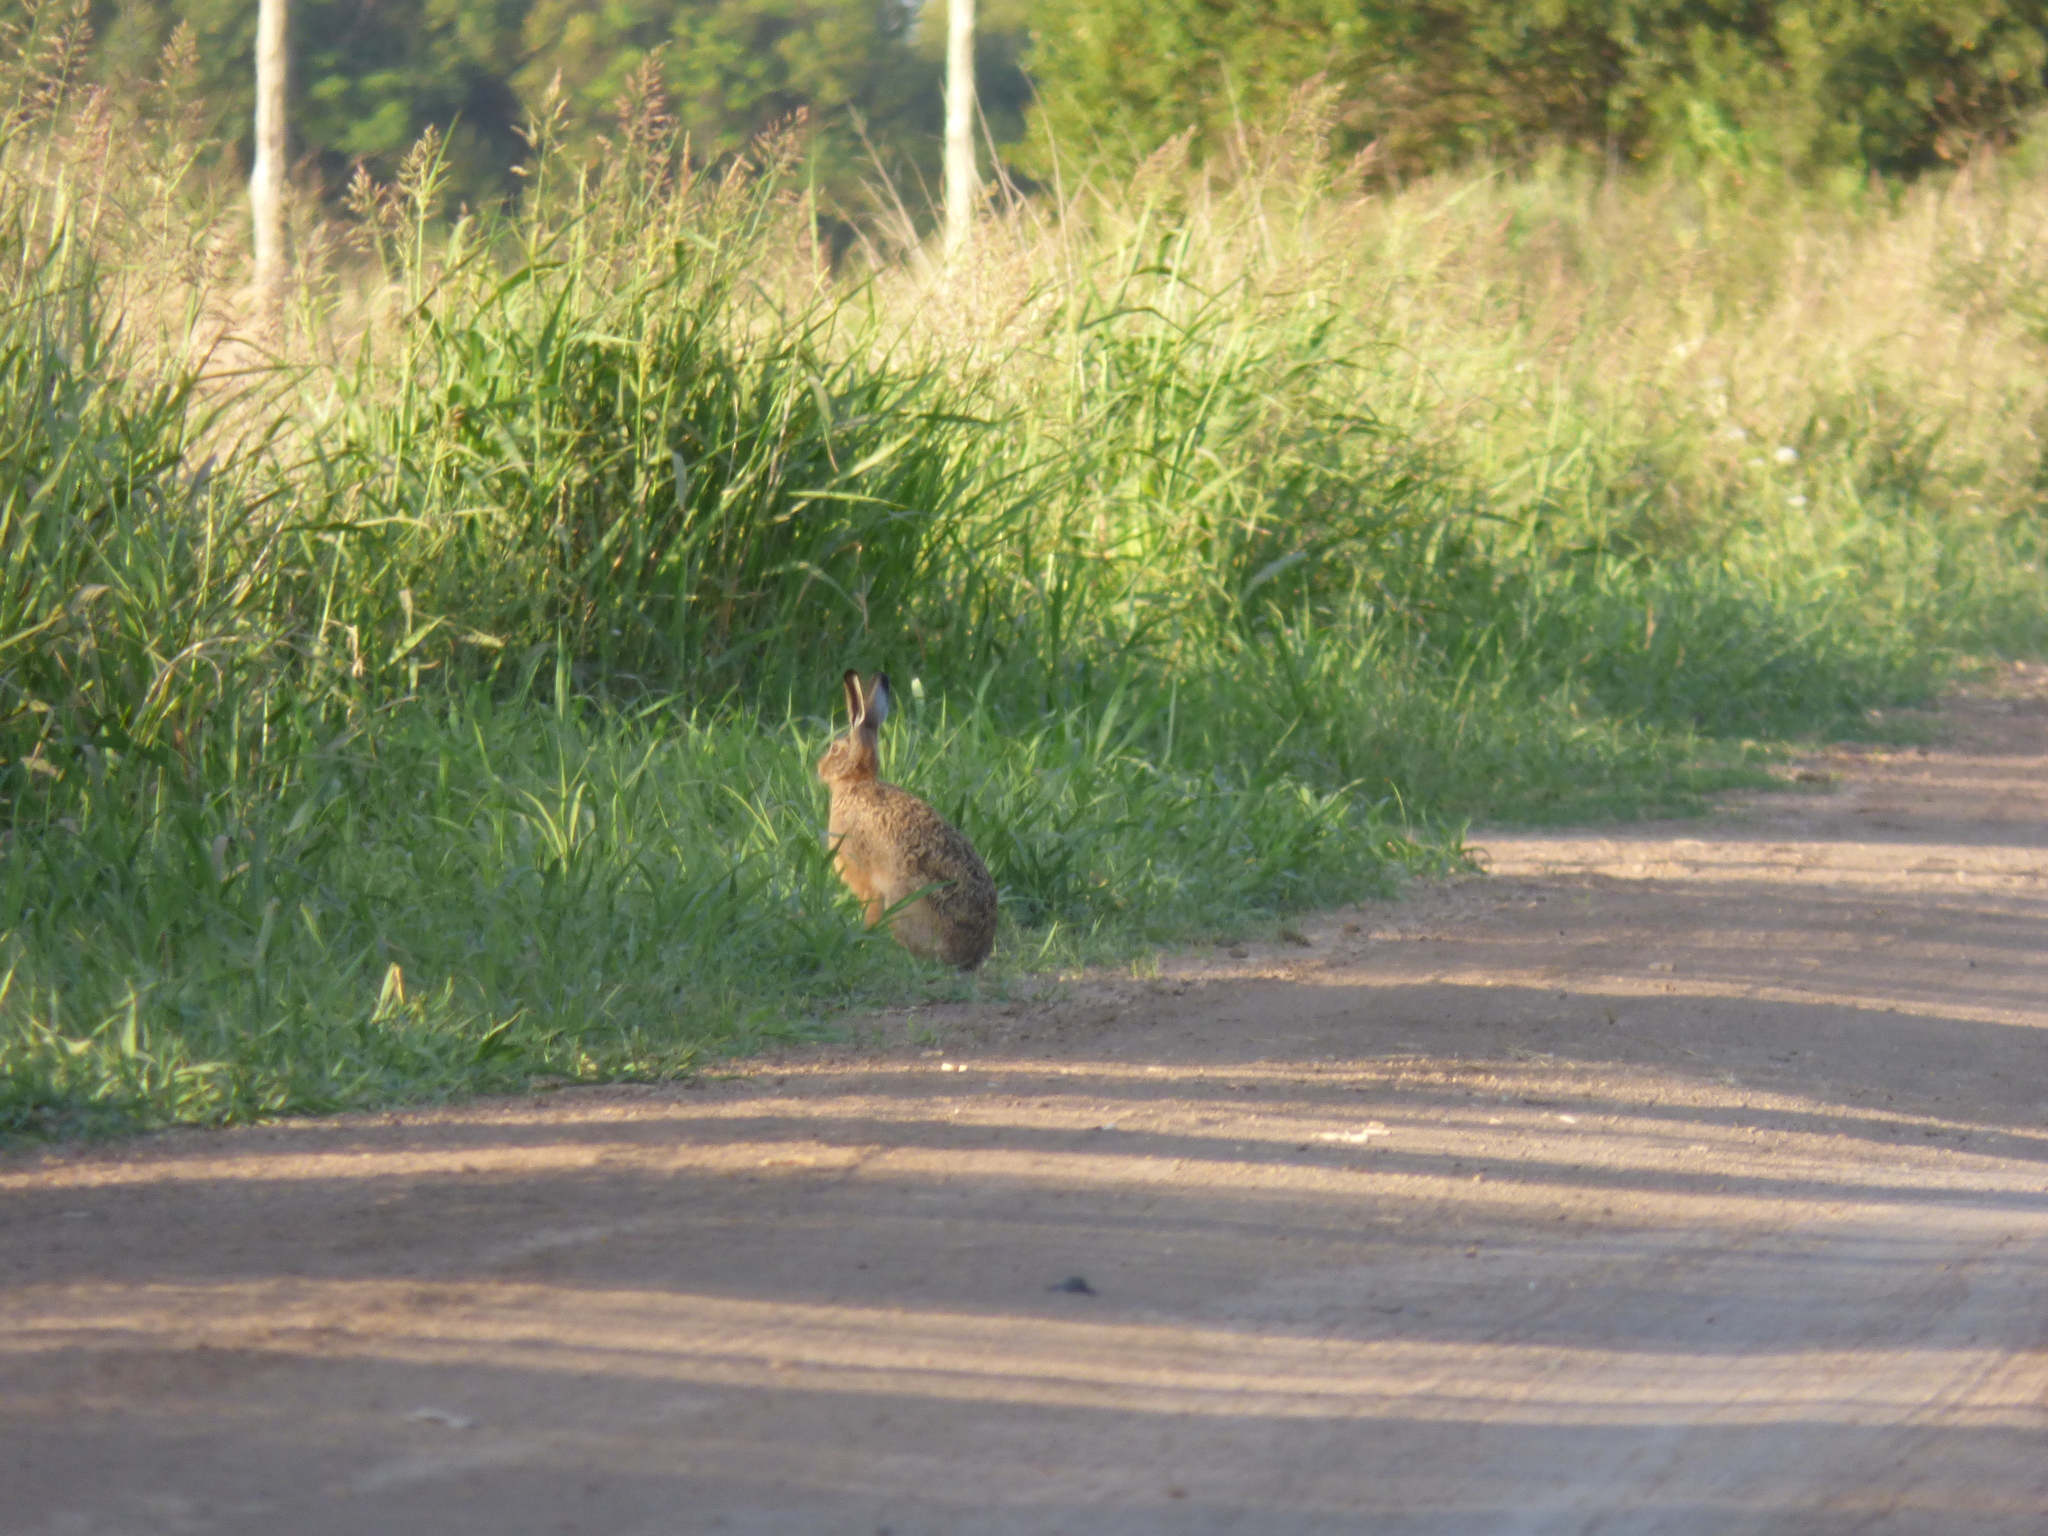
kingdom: Animalia
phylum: Chordata
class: Mammalia
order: Lagomorpha
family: Leporidae
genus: Lepus
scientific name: Lepus europaeus
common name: European hare
